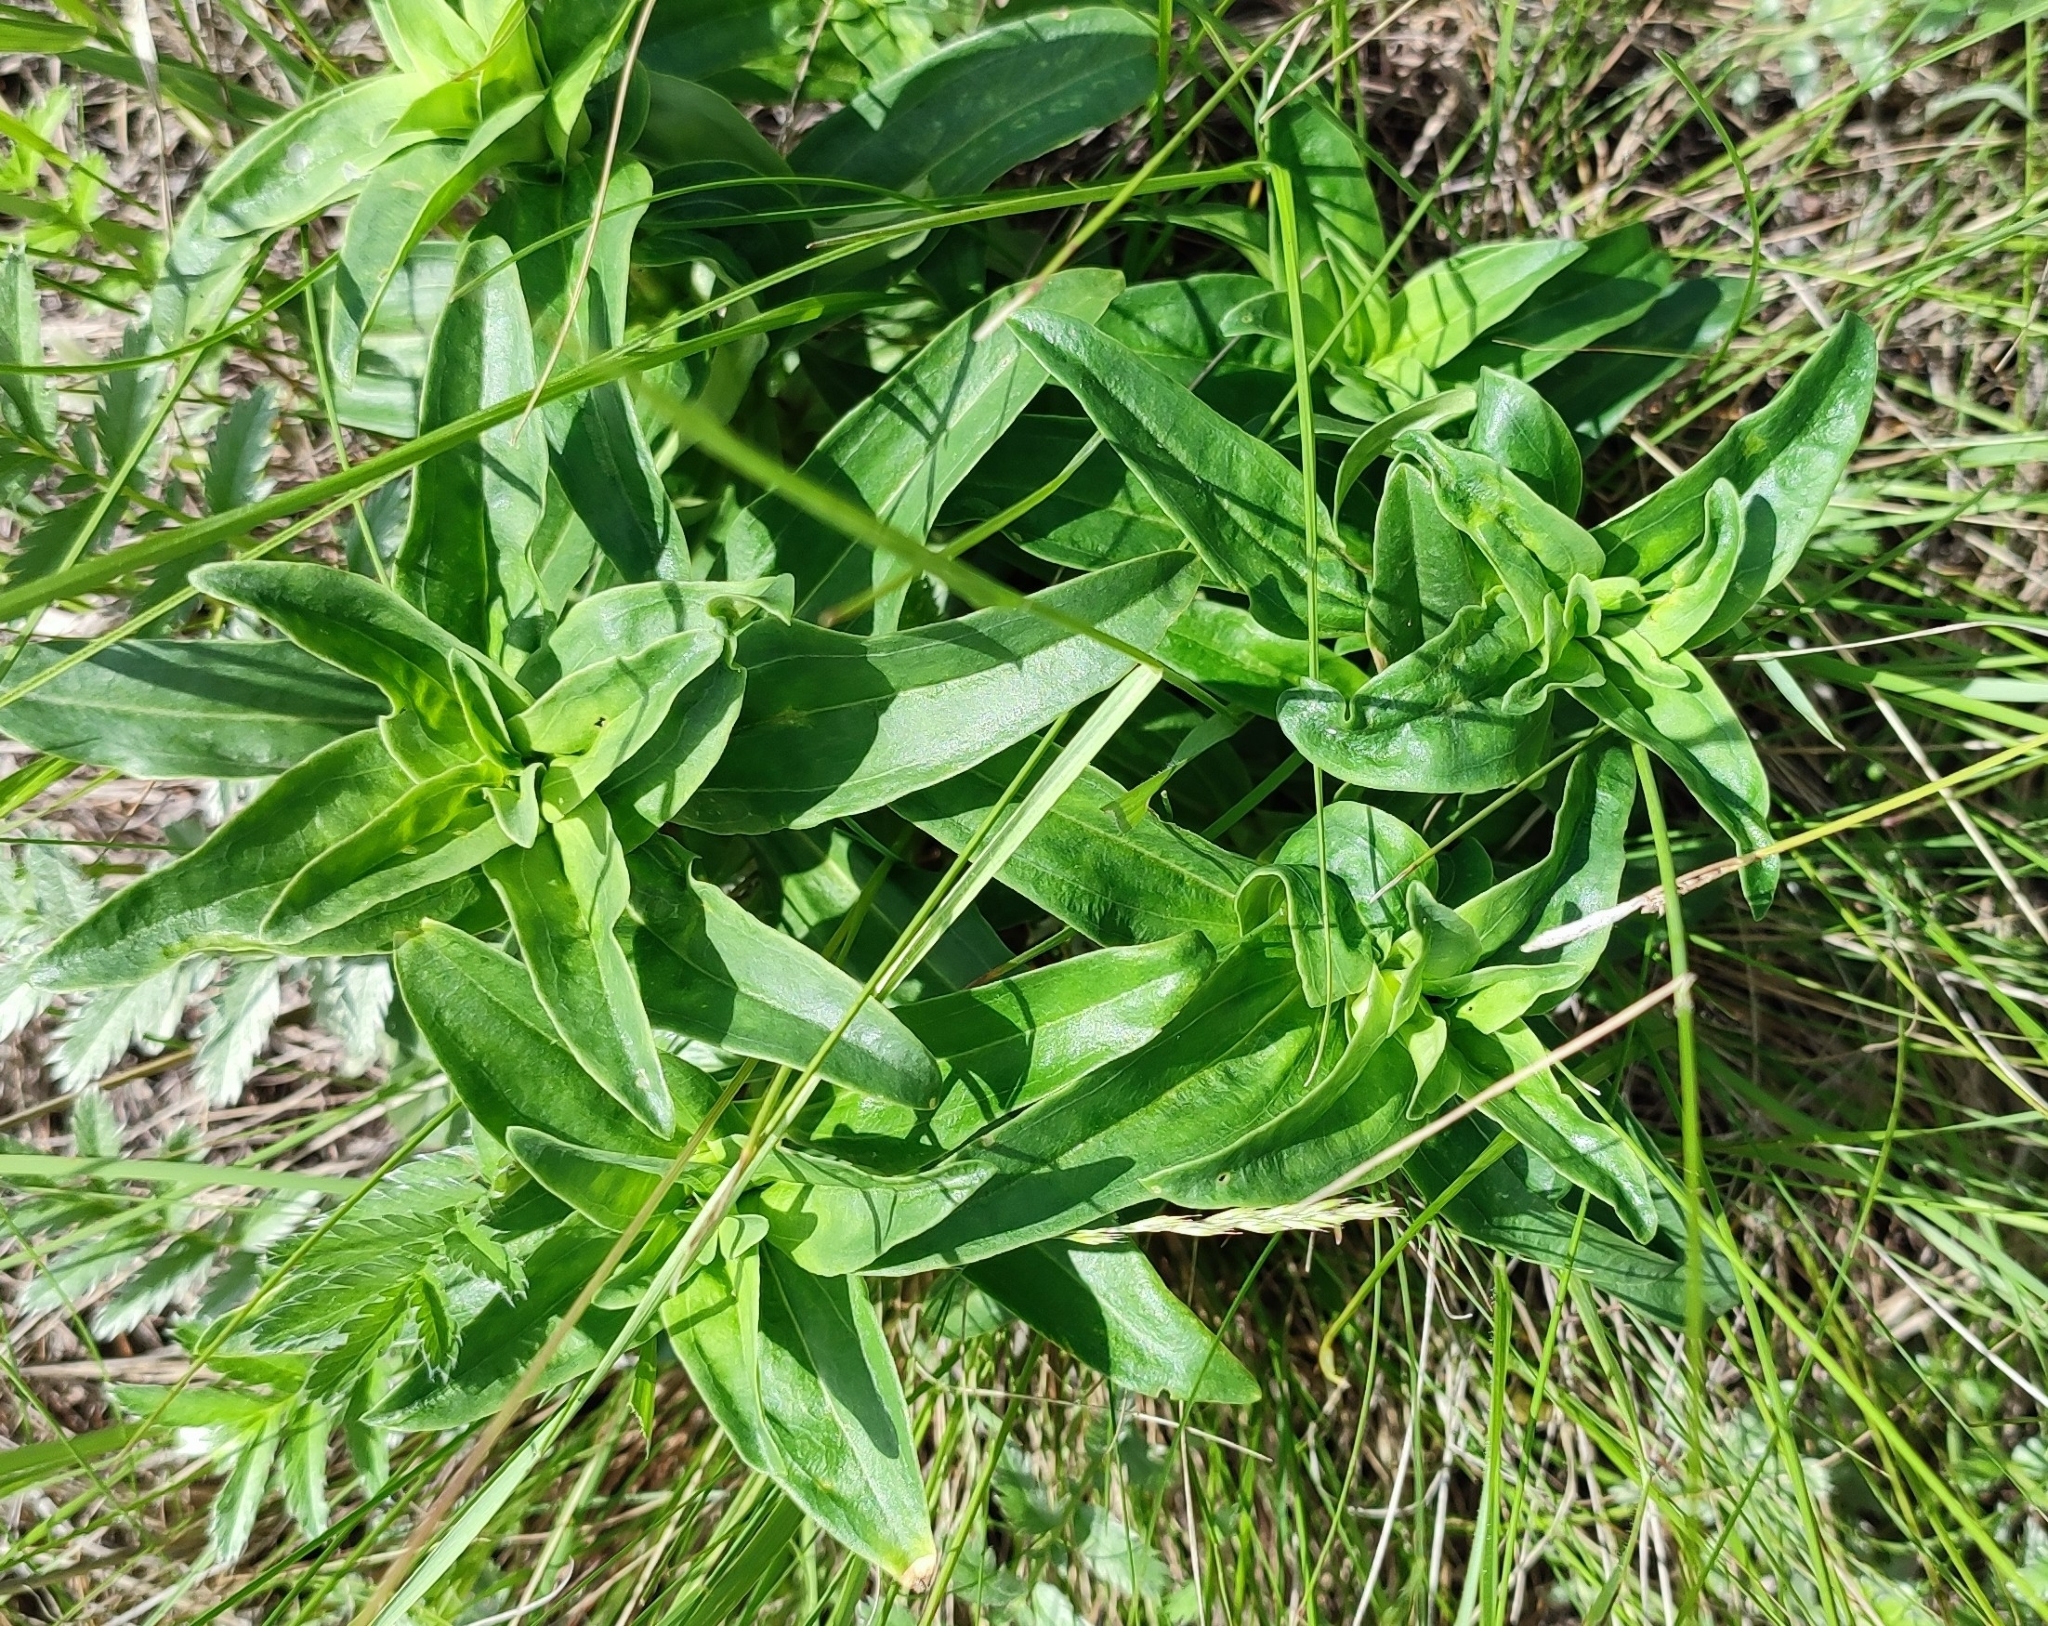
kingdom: Plantae
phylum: Tracheophyta
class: Magnoliopsida
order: Gentianales
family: Gentianaceae
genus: Gentiana
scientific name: Gentiana cruciata
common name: Cross gentian
